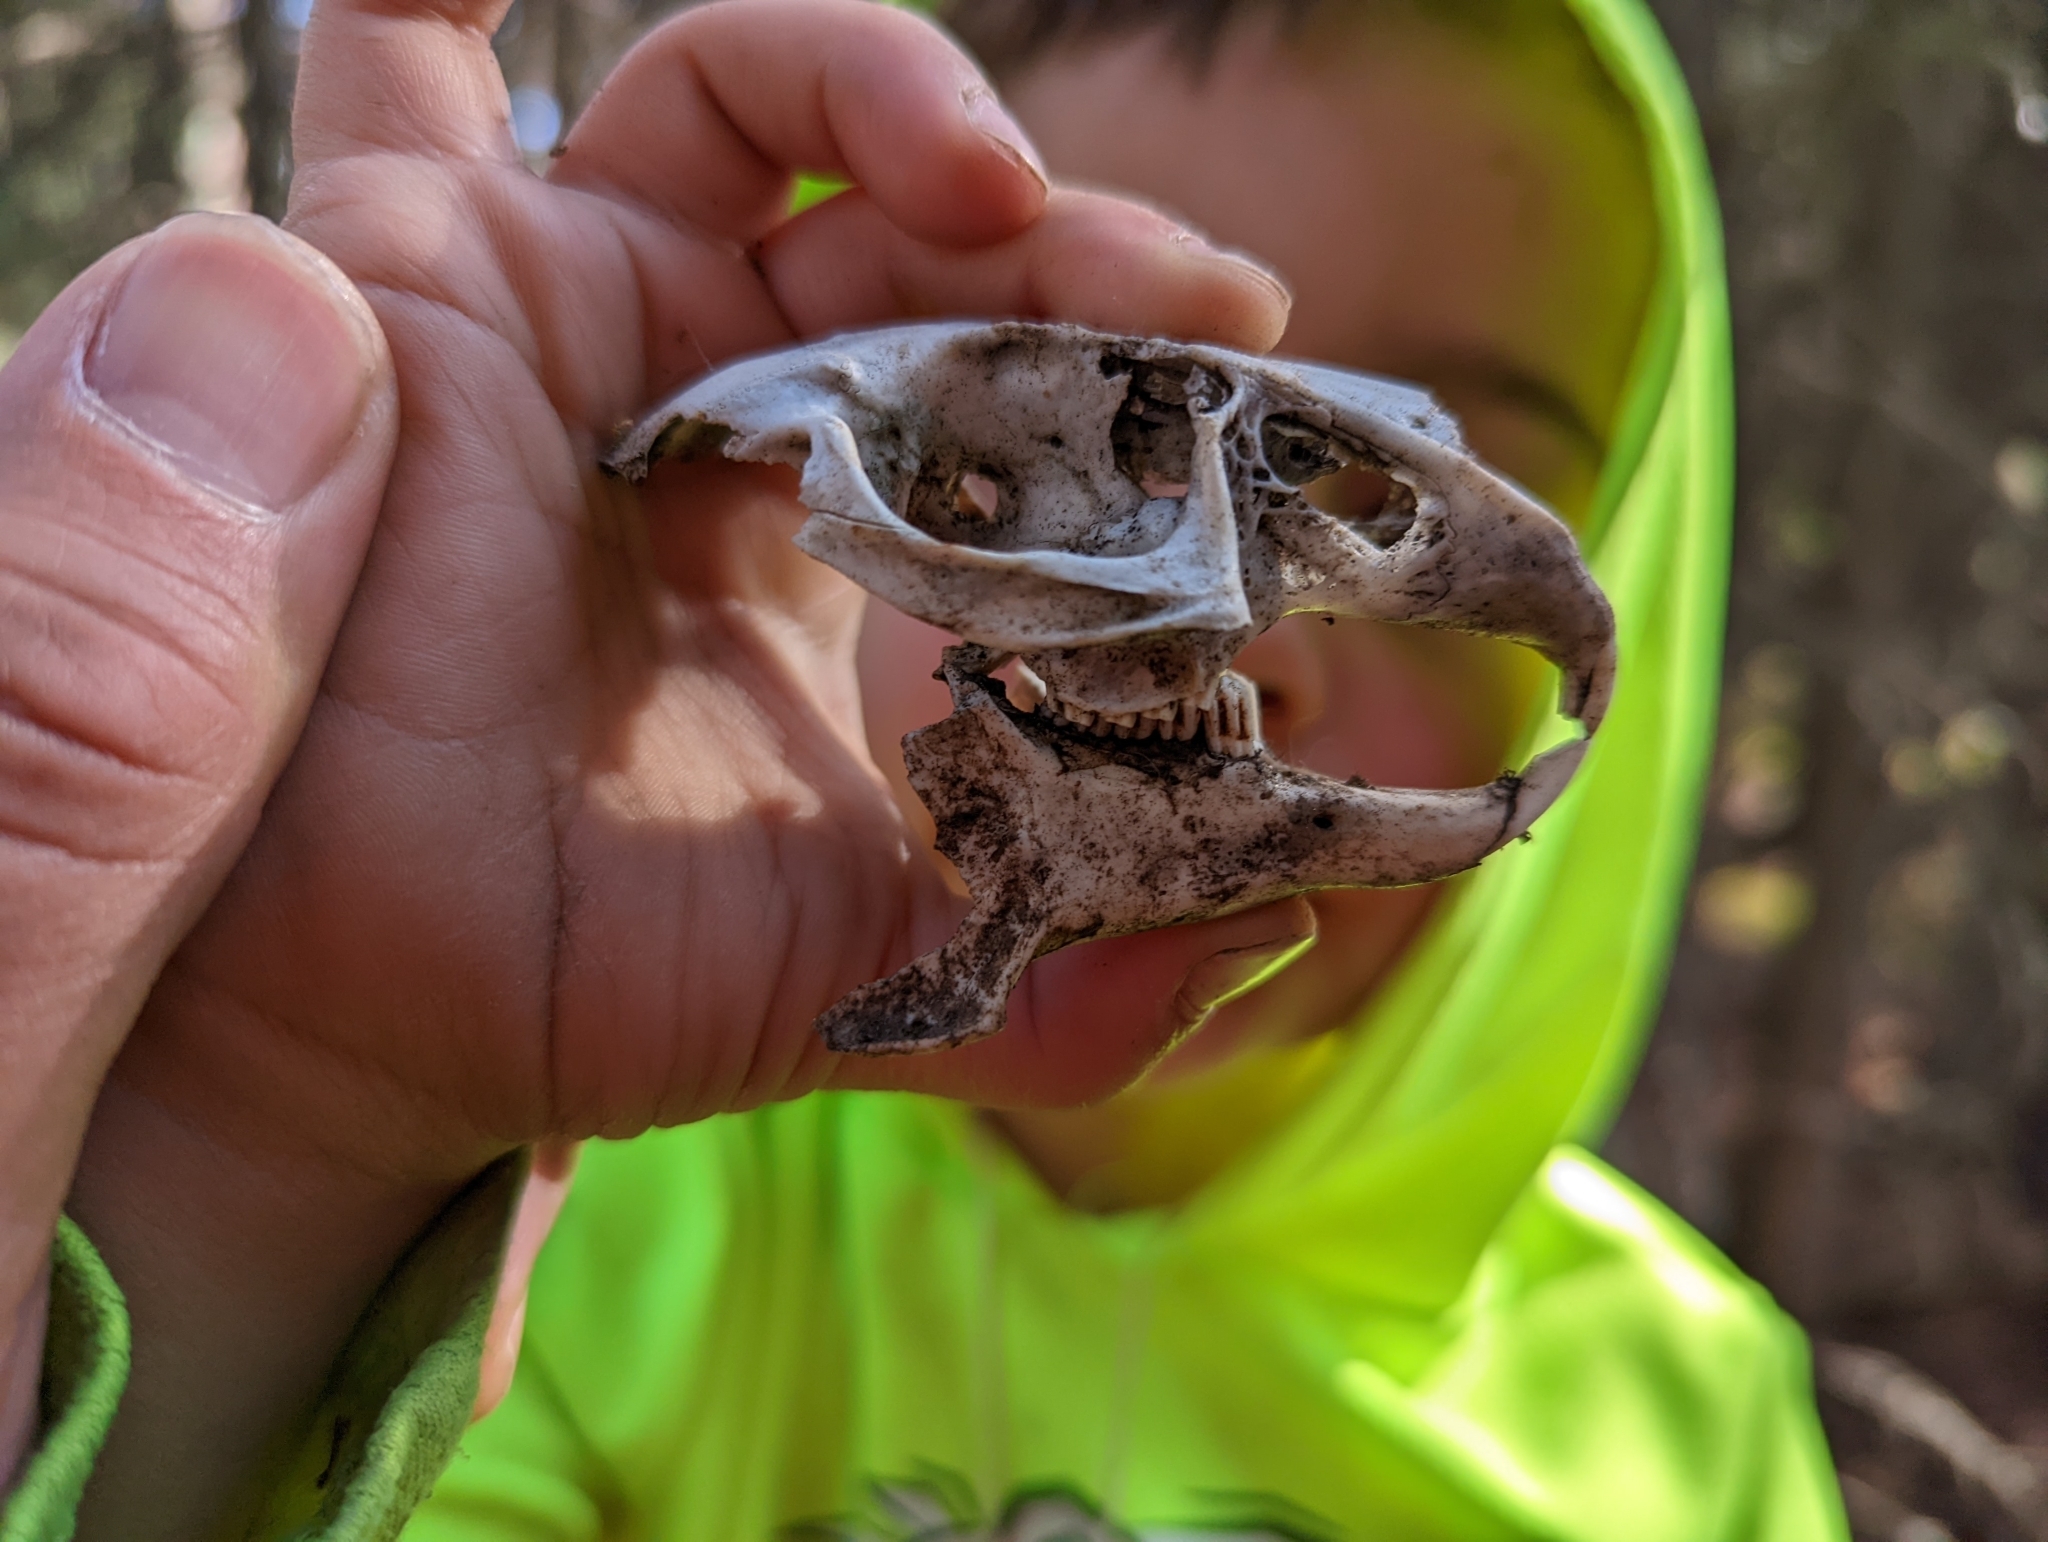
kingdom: Animalia
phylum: Chordata
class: Mammalia
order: Lagomorpha
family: Leporidae
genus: Lepus
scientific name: Lepus americanus
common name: Snowshoe hare
